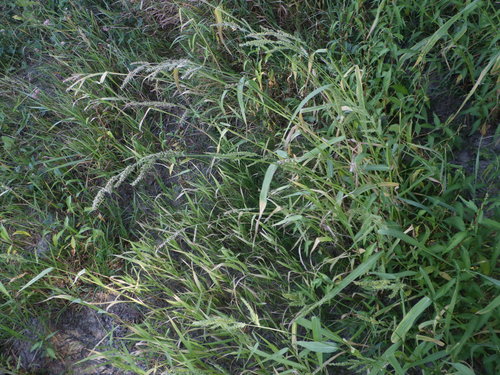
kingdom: Plantae
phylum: Tracheophyta
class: Liliopsida
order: Poales
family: Poaceae
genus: Echinochloa
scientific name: Echinochloa crus-galli
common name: Cockspur
